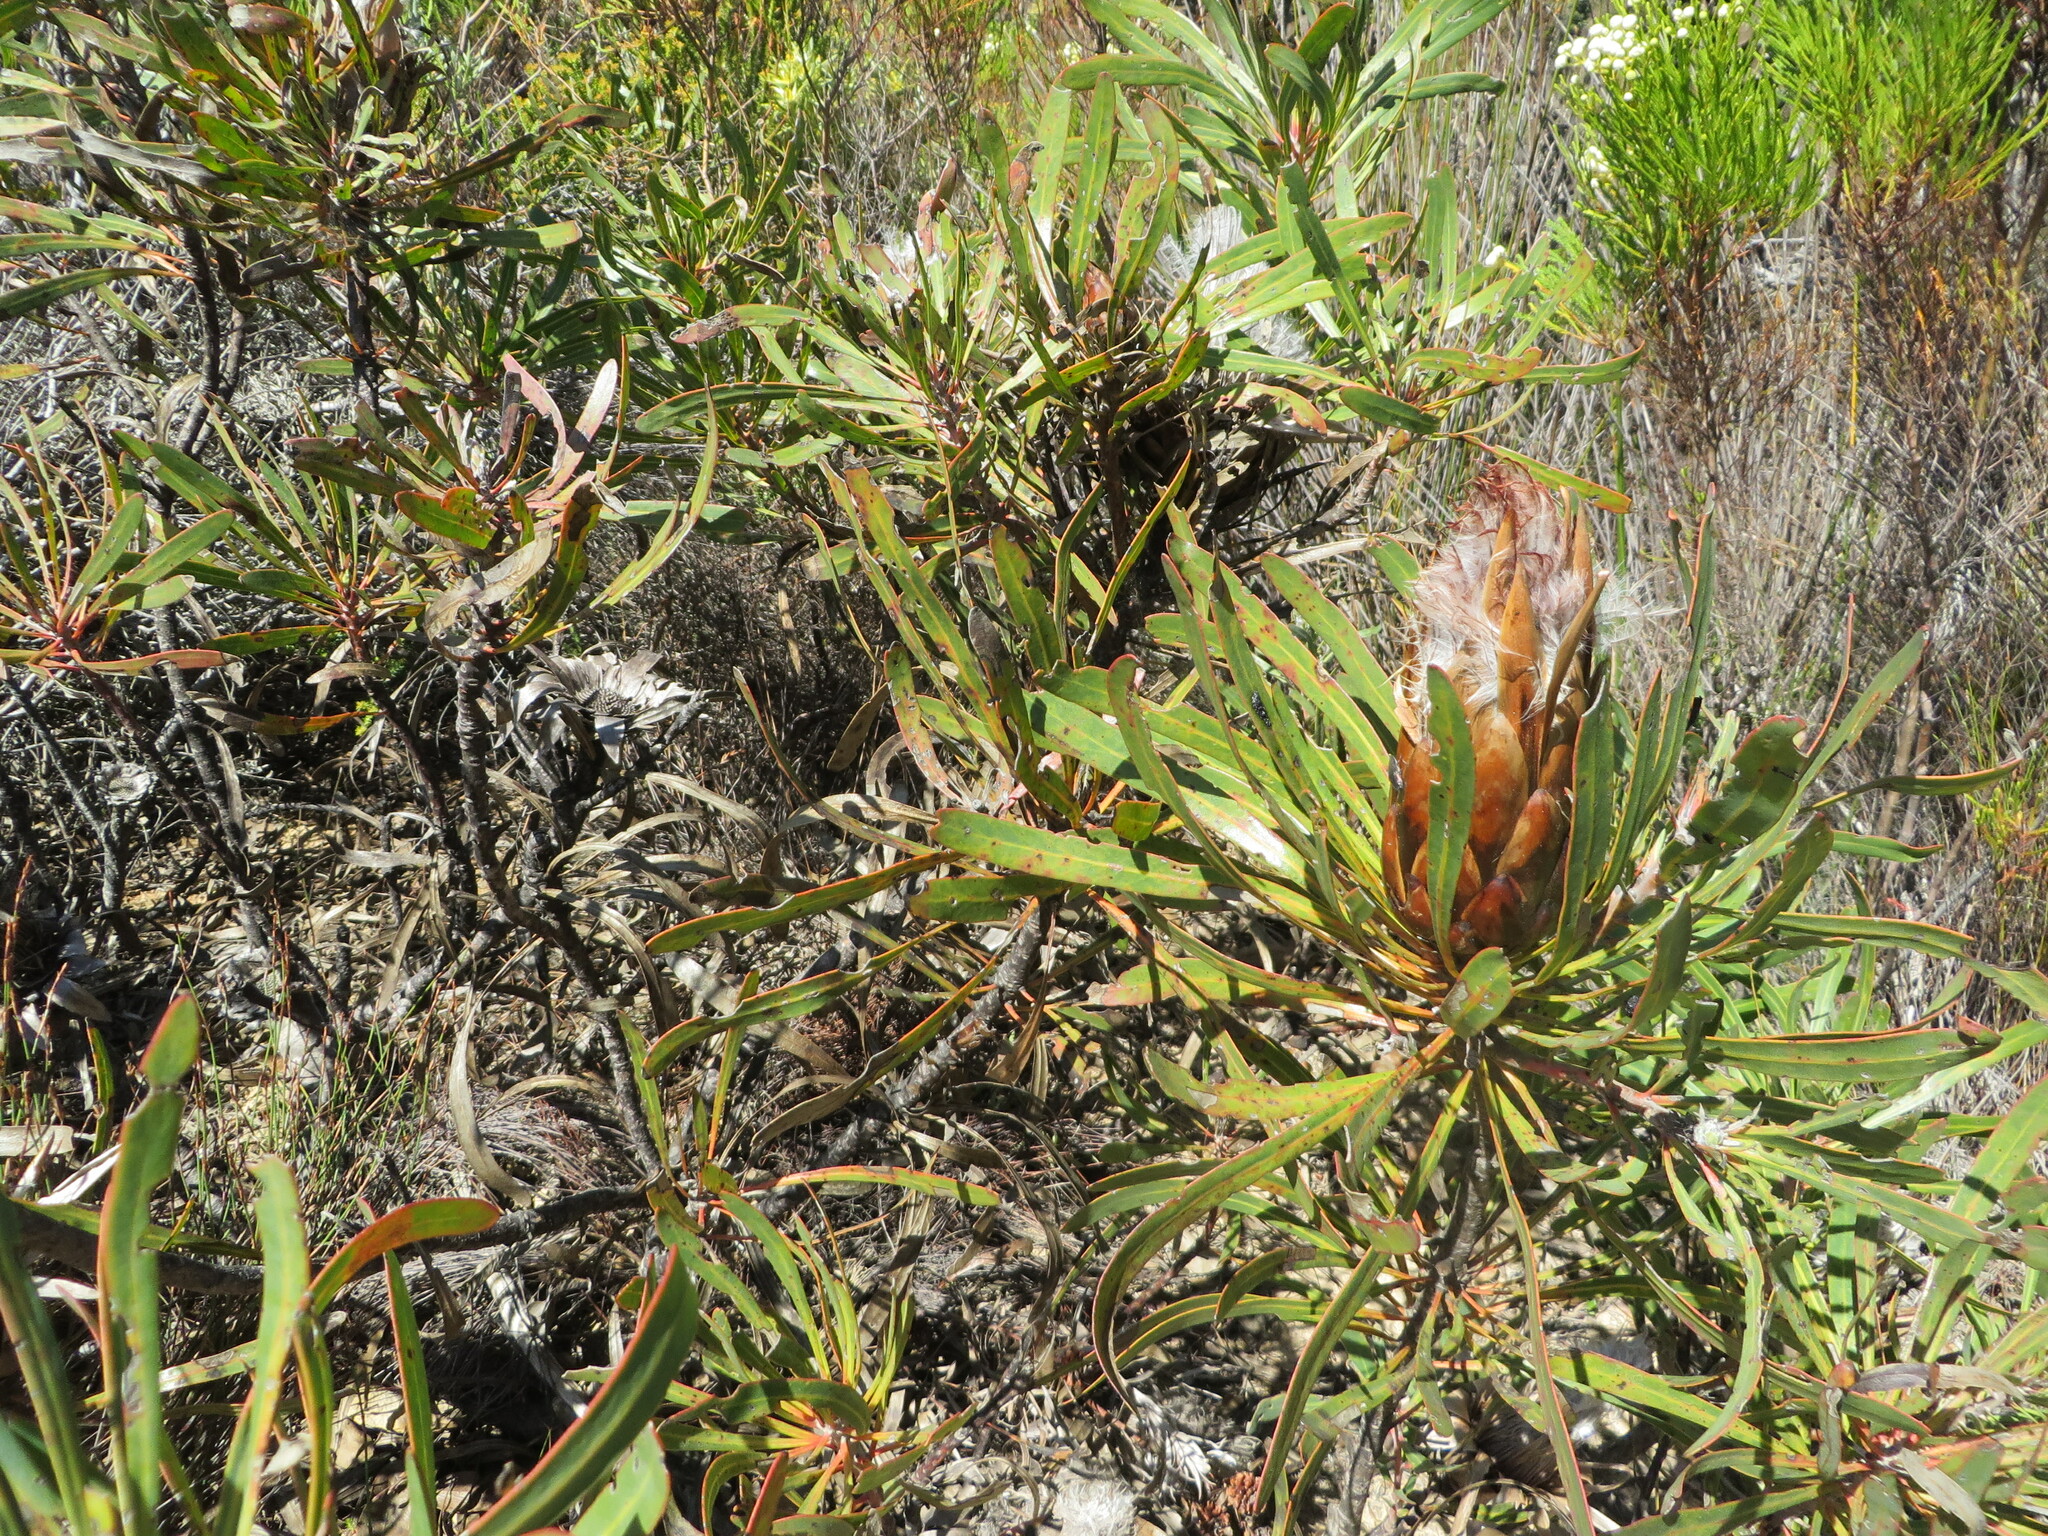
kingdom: Plantae
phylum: Tracheophyta
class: Magnoliopsida
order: Proteales
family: Proteaceae
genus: Protea
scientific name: Protea longifolia
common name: Long-leaf sugarbush
